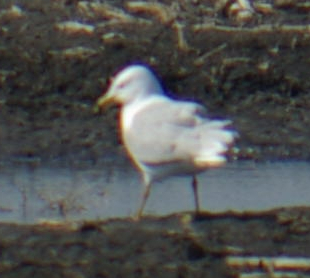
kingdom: Animalia
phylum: Chordata
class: Aves
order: Charadriiformes
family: Laridae
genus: Larus
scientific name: Larus delawarensis
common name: Ring-billed gull
